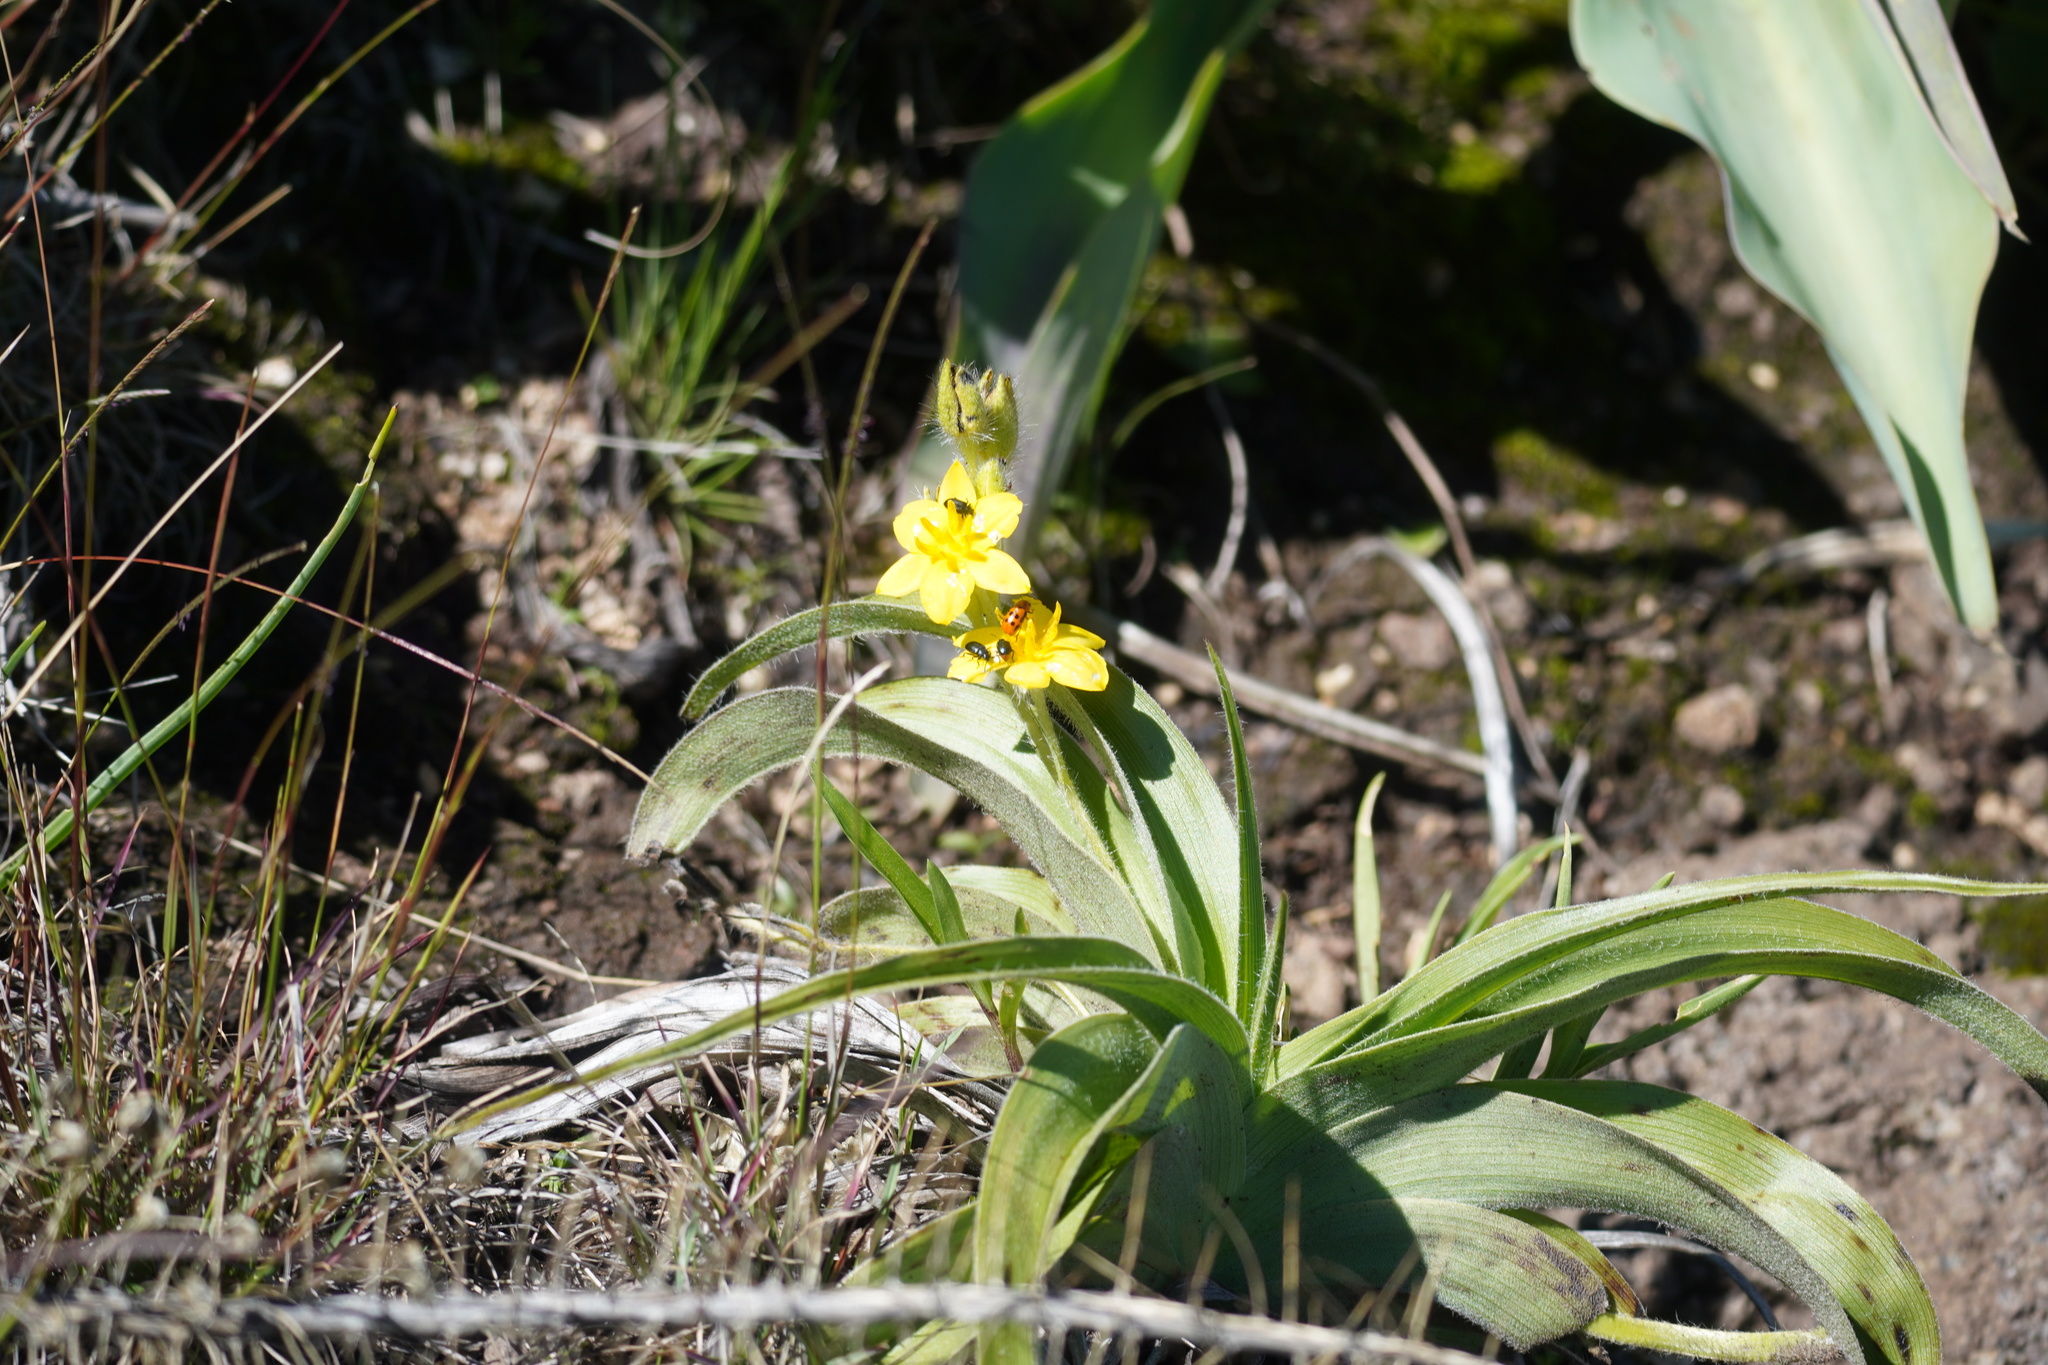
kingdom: Plantae
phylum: Tracheophyta
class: Liliopsida
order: Asparagales
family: Hypoxidaceae
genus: Hypoxis
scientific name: Hypoxis hemerocallidea
